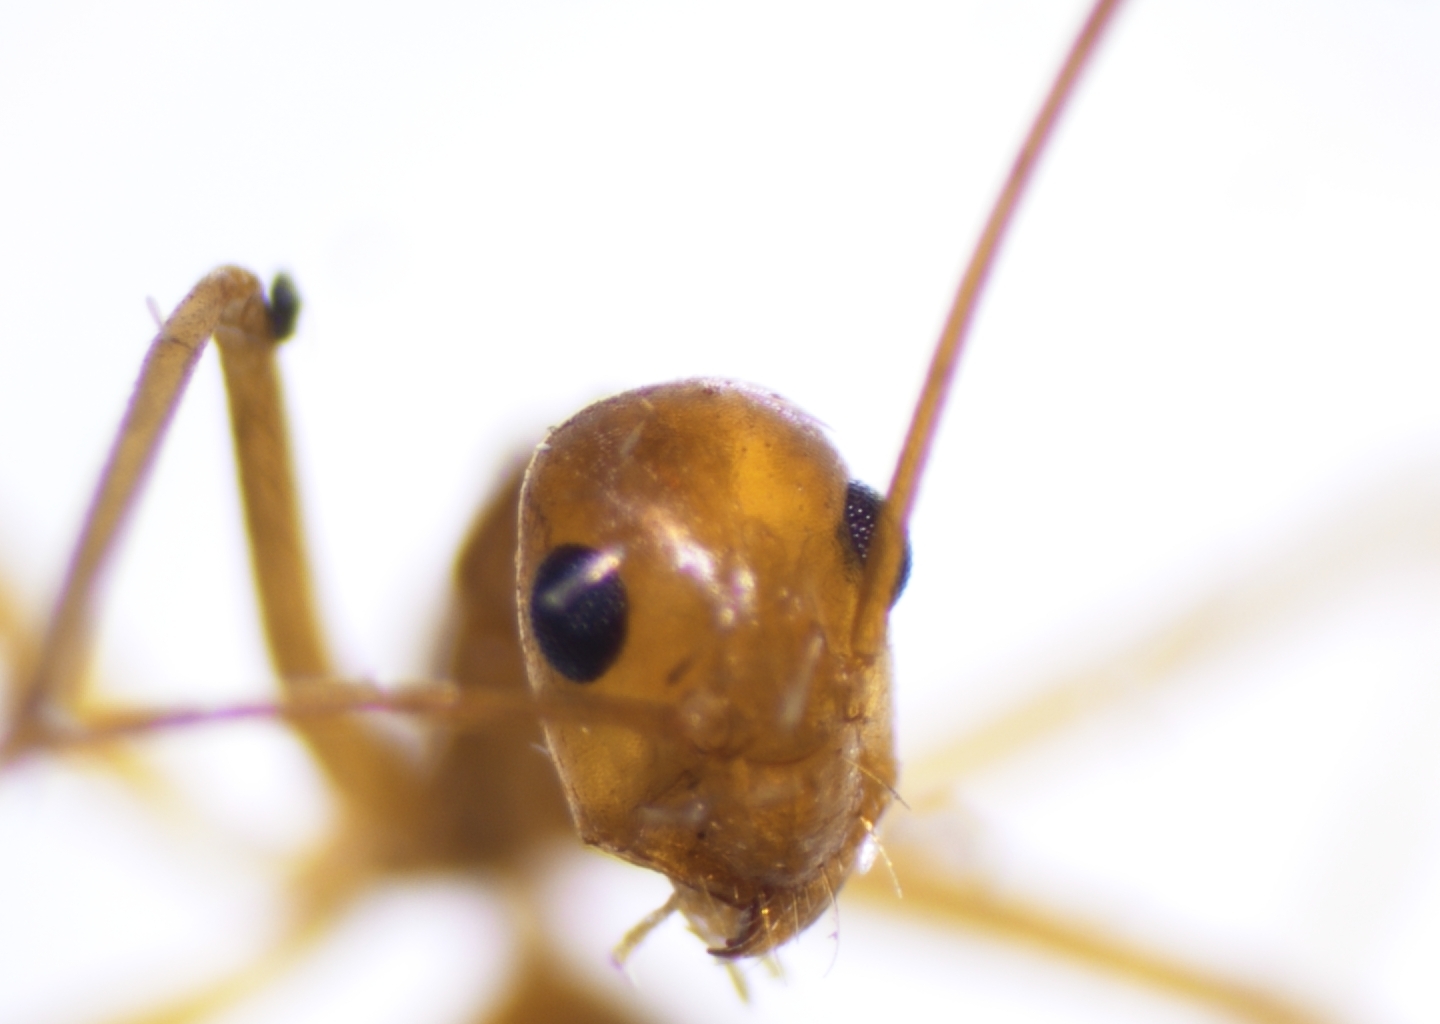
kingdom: Animalia
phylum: Arthropoda
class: Insecta
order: Hymenoptera
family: Formicidae
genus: Anoplolepis
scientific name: Anoplolepis gracilipes
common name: Ant
